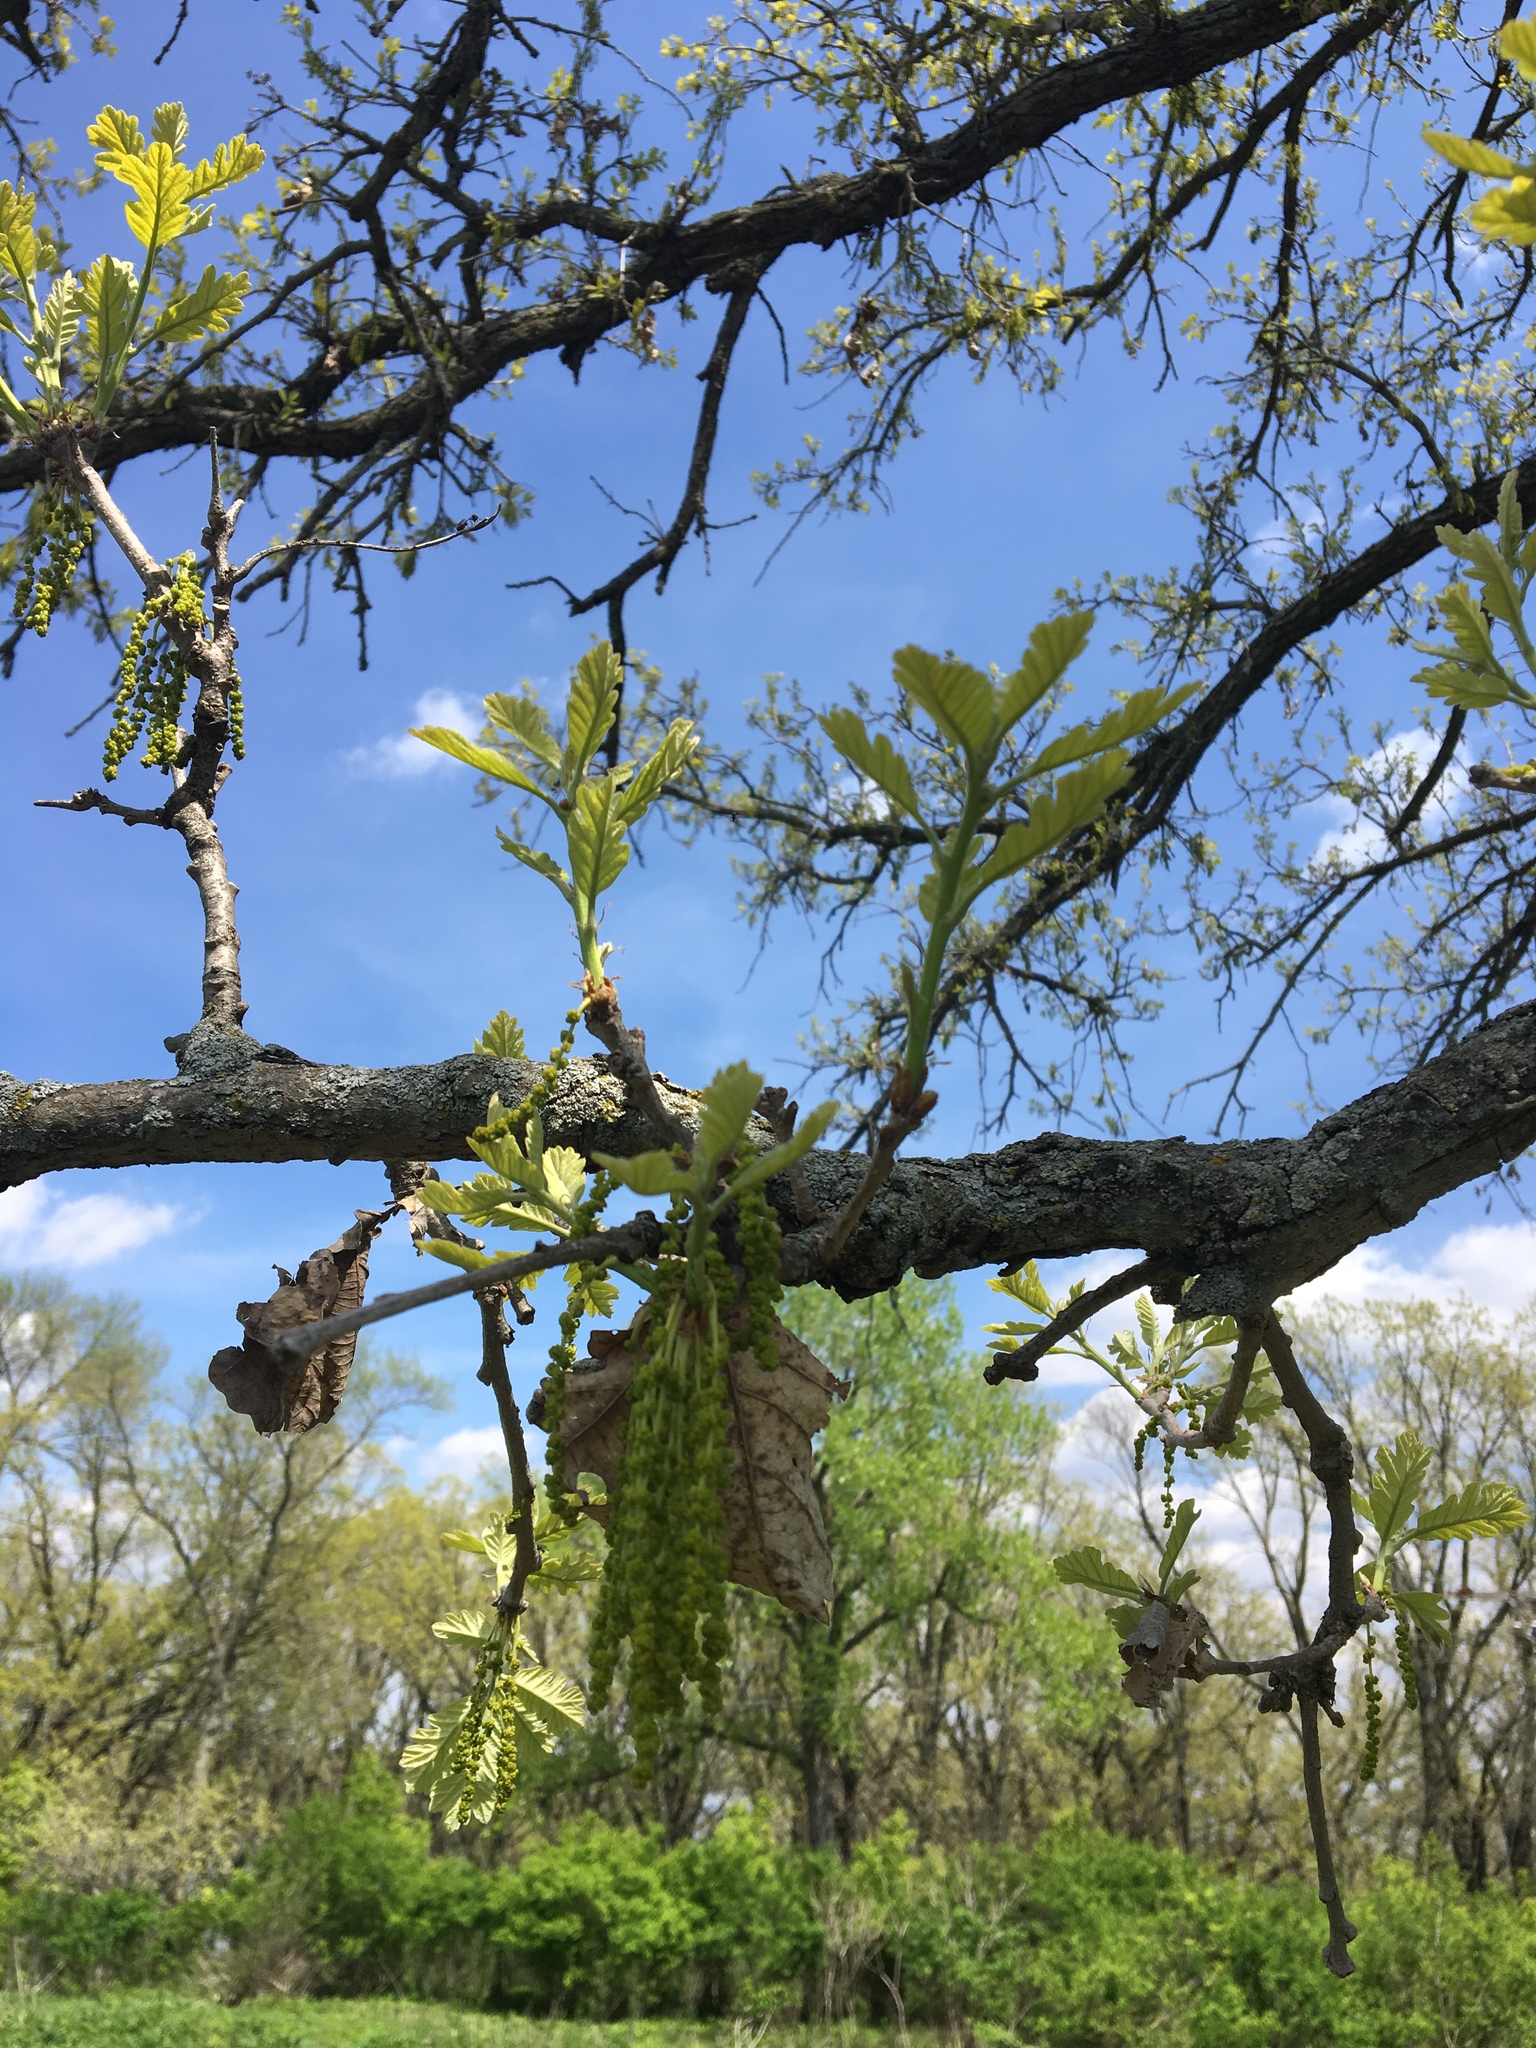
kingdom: Plantae
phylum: Tracheophyta
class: Magnoliopsida
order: Fagales
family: Fagaceae
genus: Quercus
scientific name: Quercus macrocarpa
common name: Bur oak
